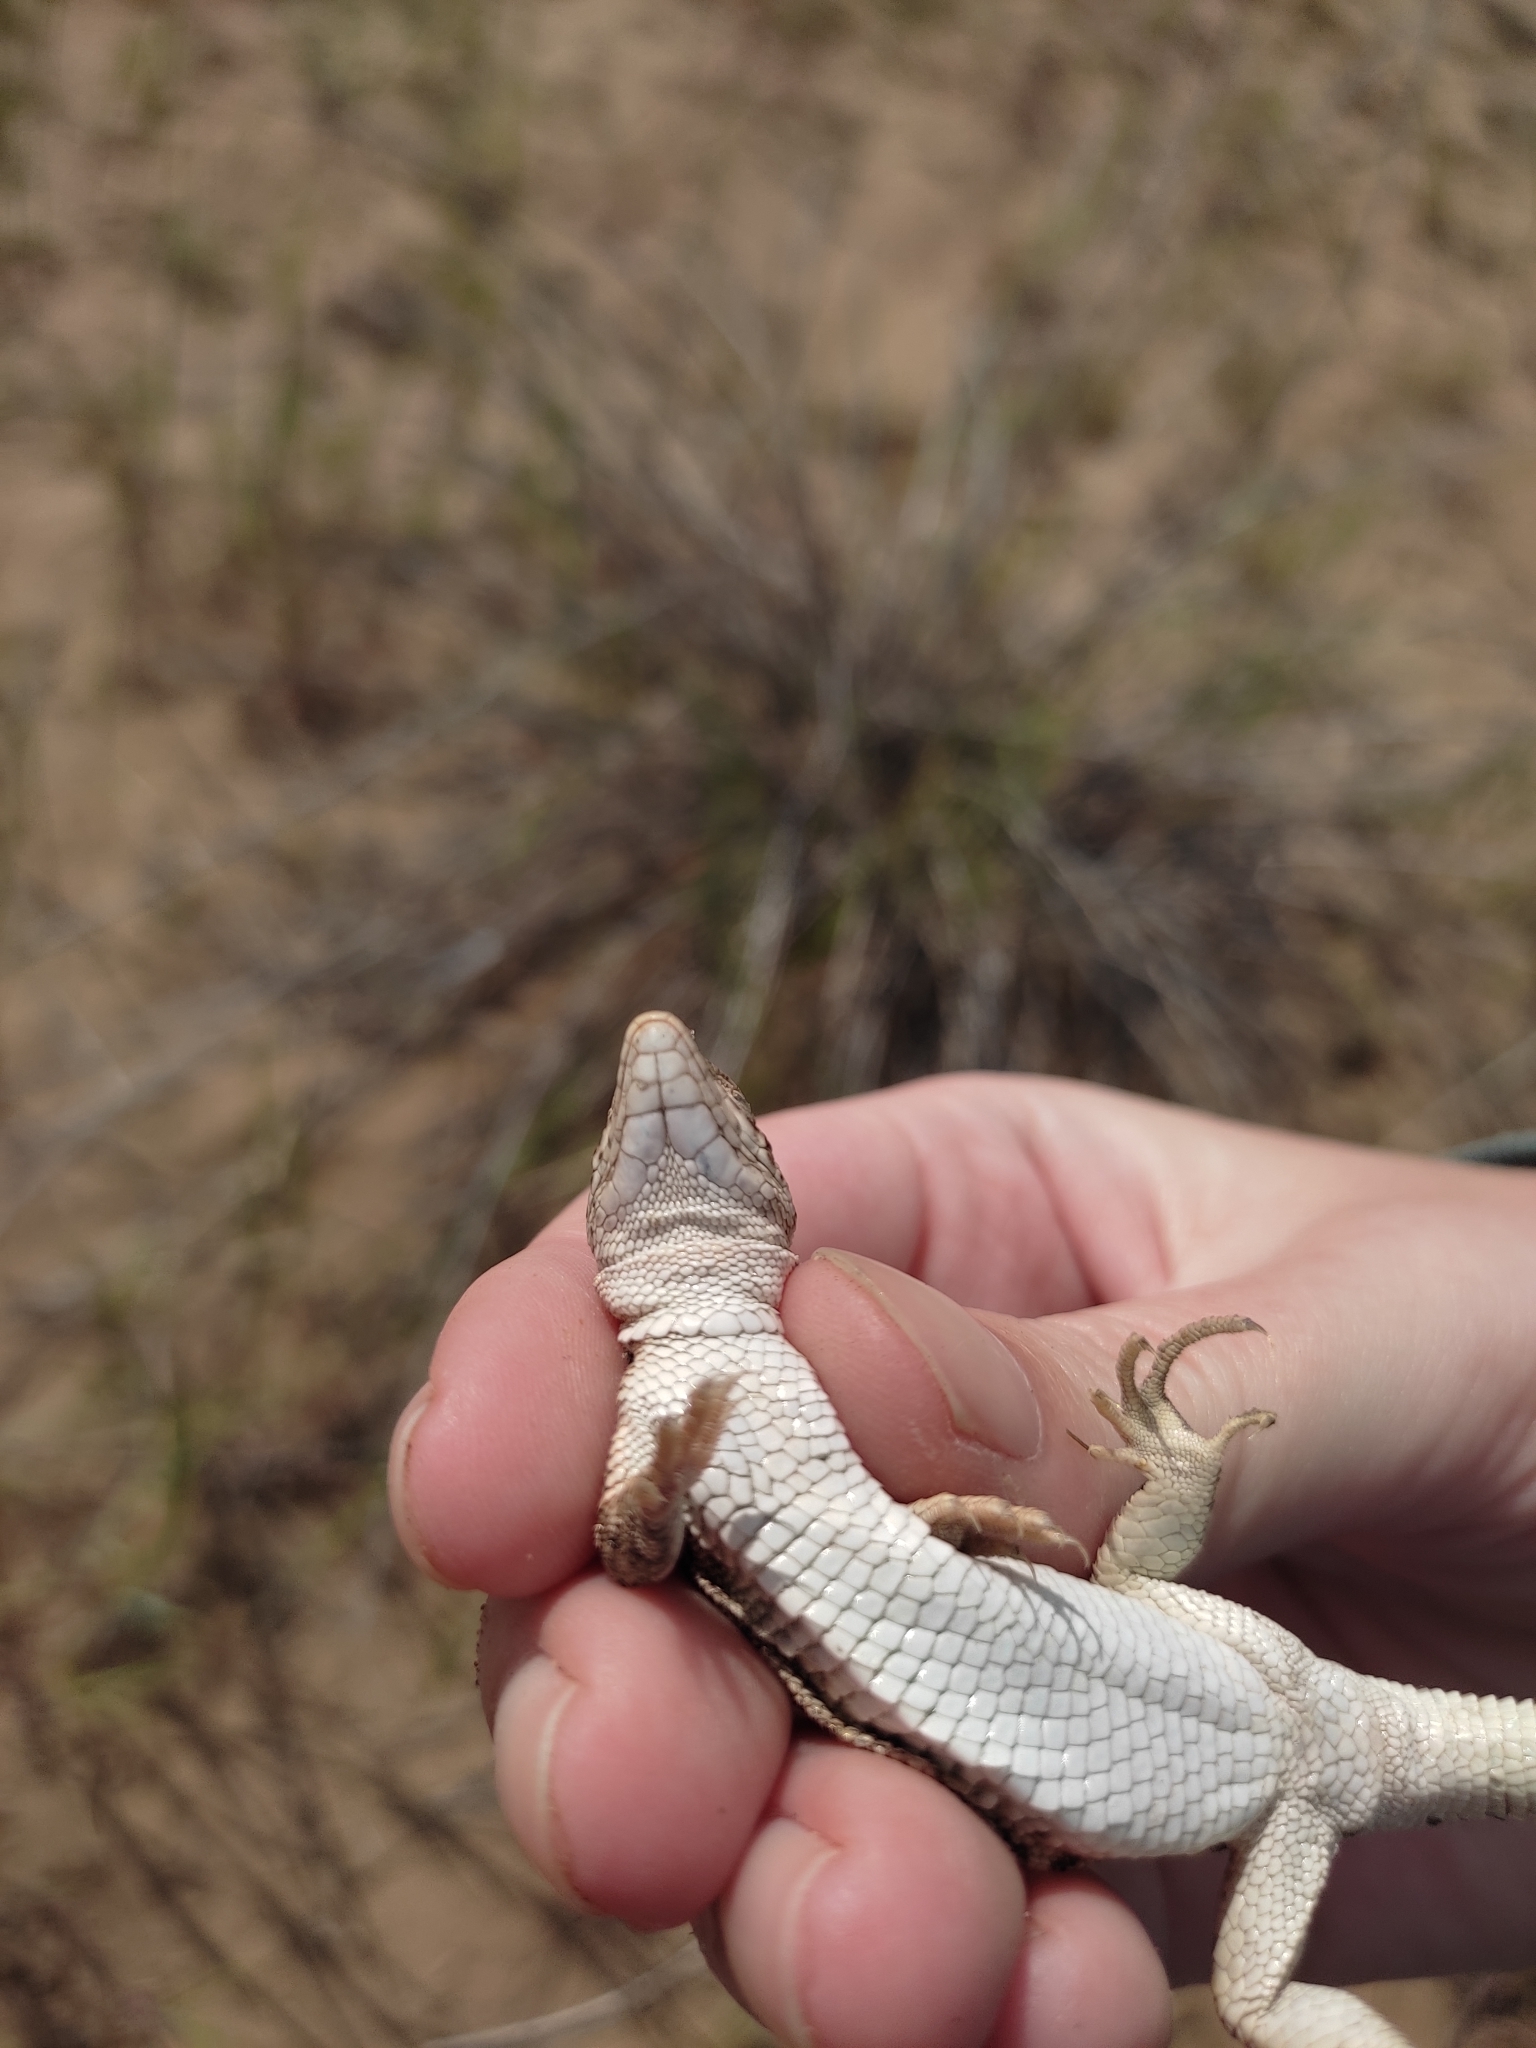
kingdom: Animalia
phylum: Chordata
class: Squamata
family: Lacertidae
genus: Eremias
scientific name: Eremias arguta
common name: Racerunner
